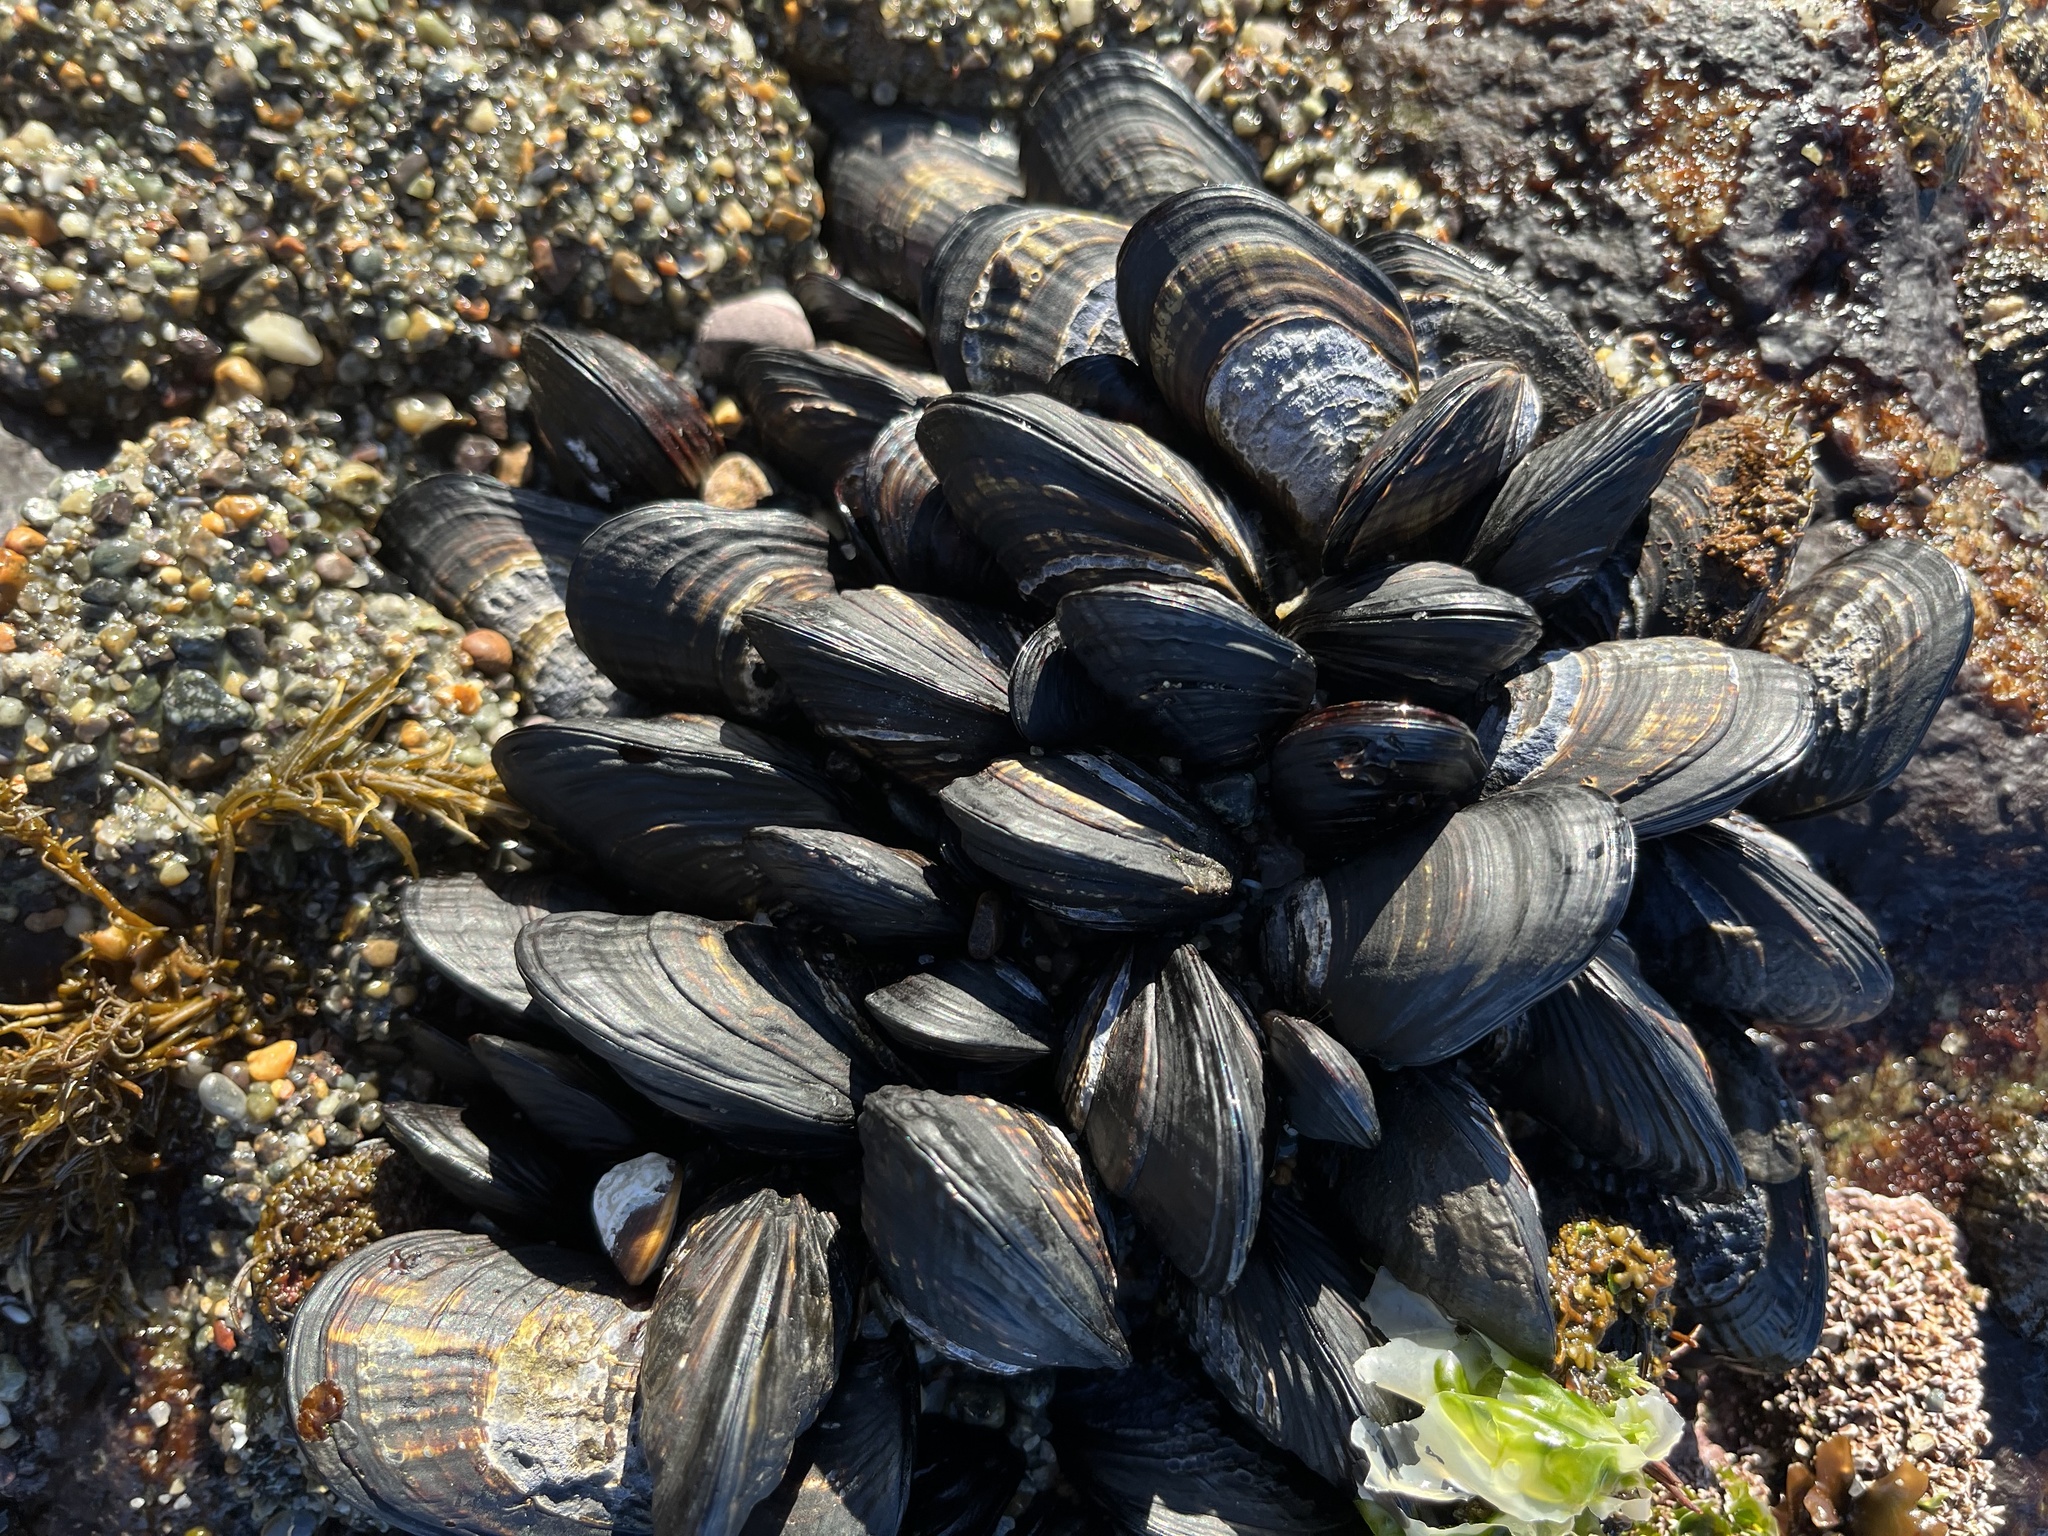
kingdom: Animalia
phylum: Mollusca
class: Bivalvia
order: Mytilida
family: Mytilidae
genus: Mytilus
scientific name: Mytilus californianus
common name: California mussel
